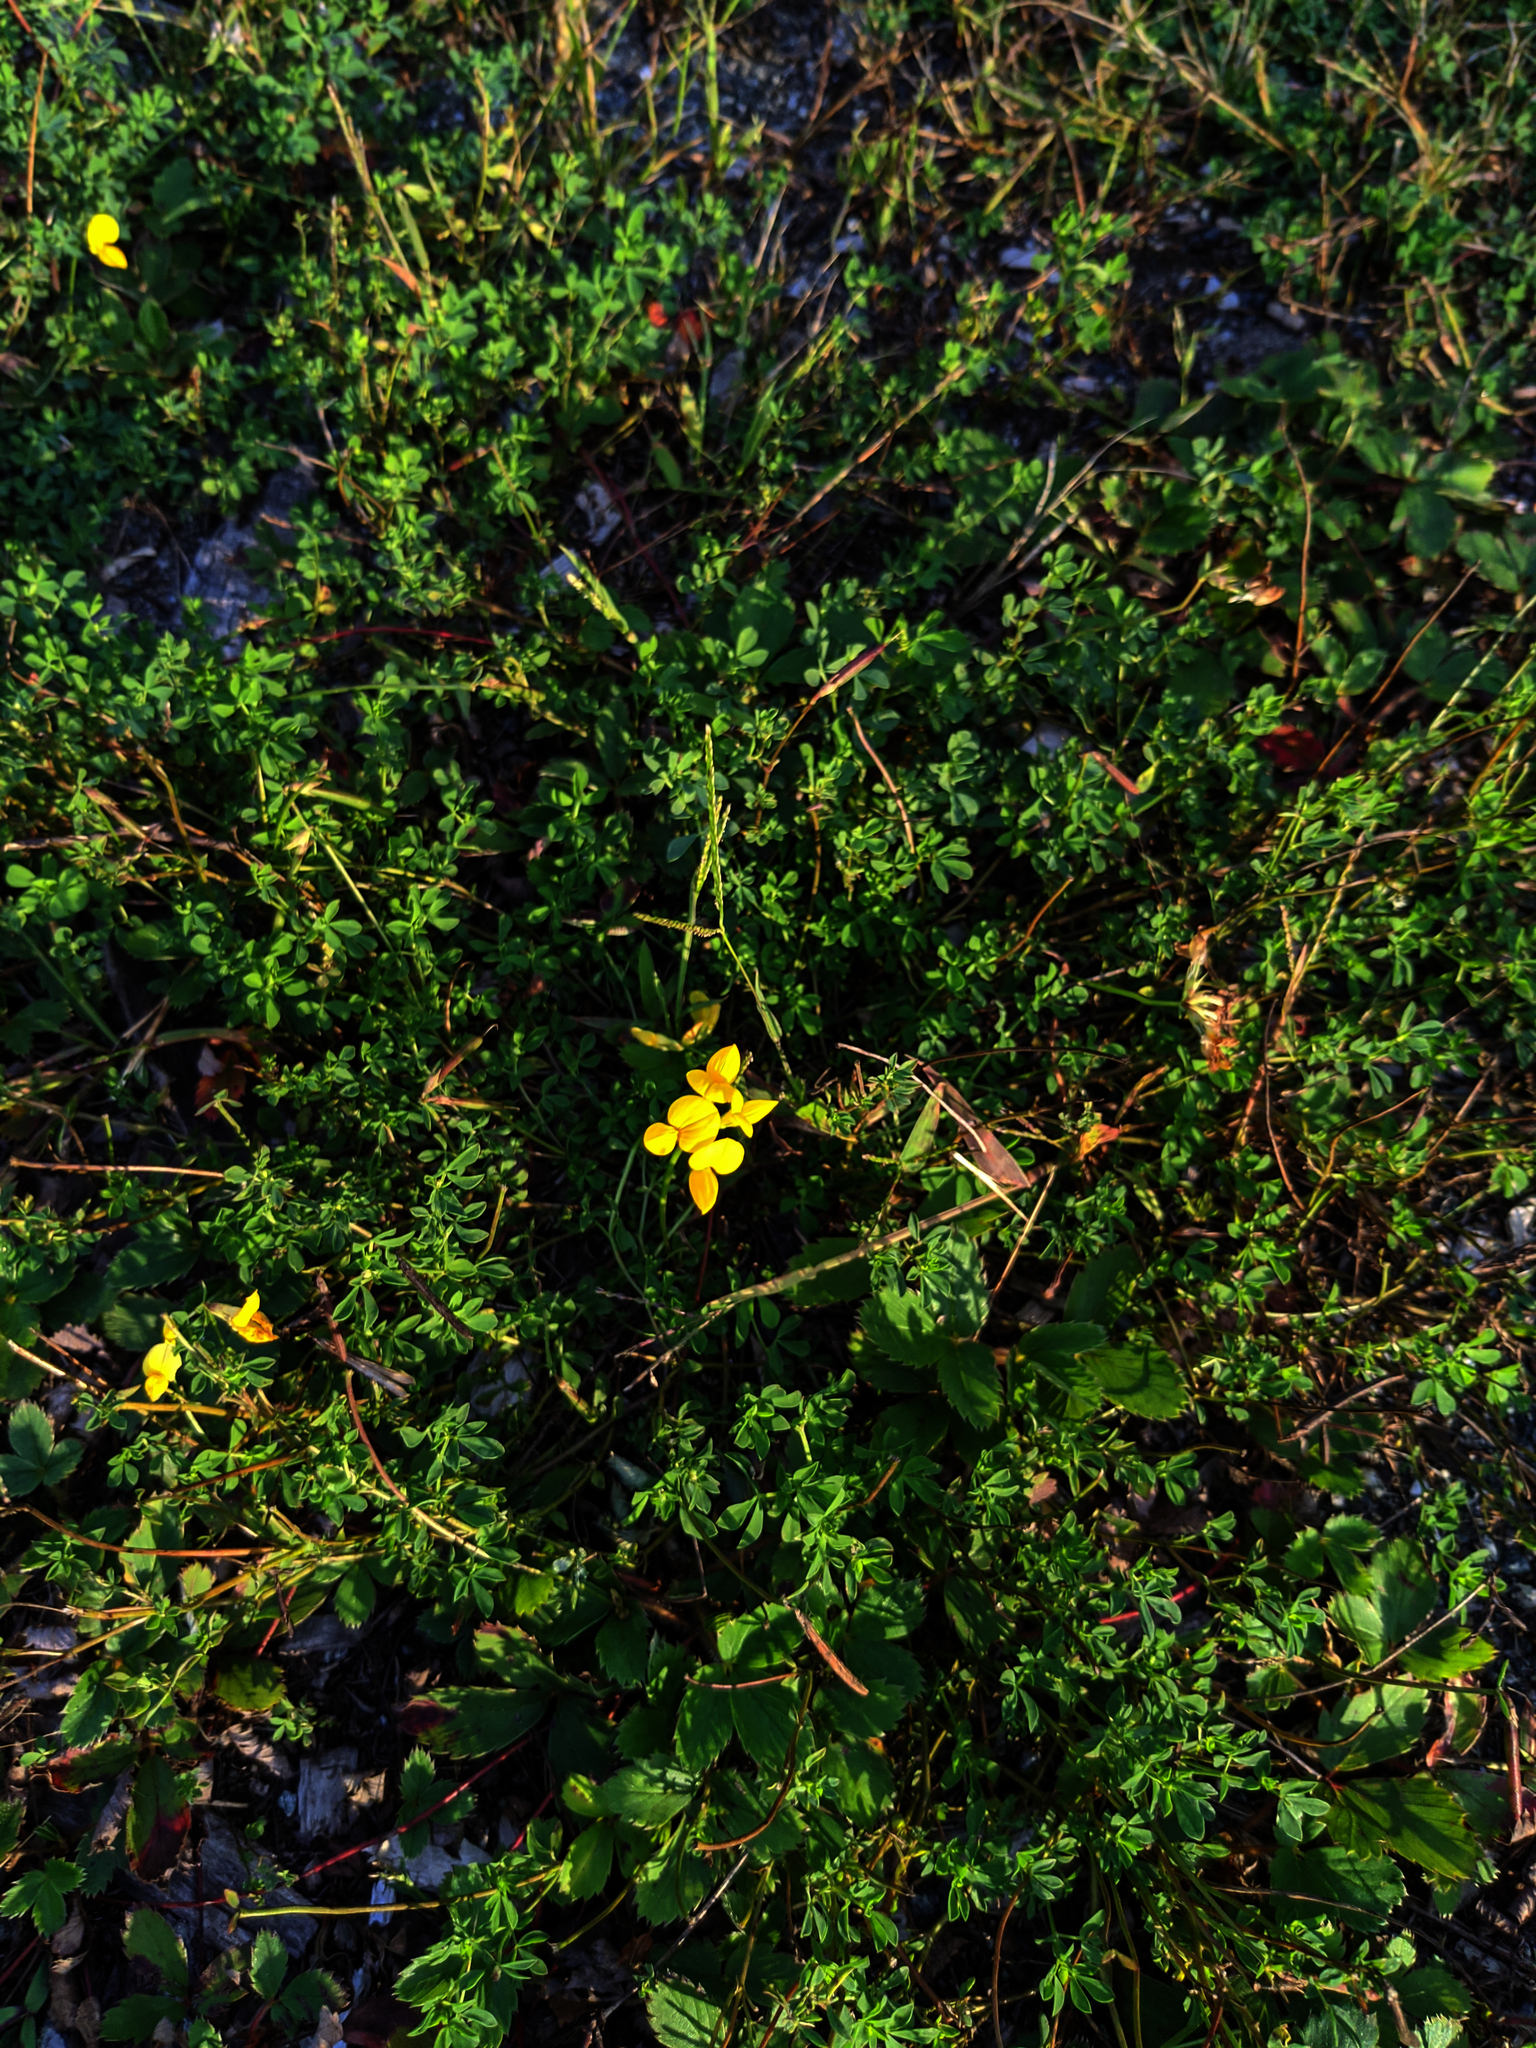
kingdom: Plantae
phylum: Tracheophyta
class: Magnoliopsida
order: Fabales
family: Fabaceae
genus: Lotus
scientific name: Lotus corniculatus
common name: Common bird's-foot-trefoil
